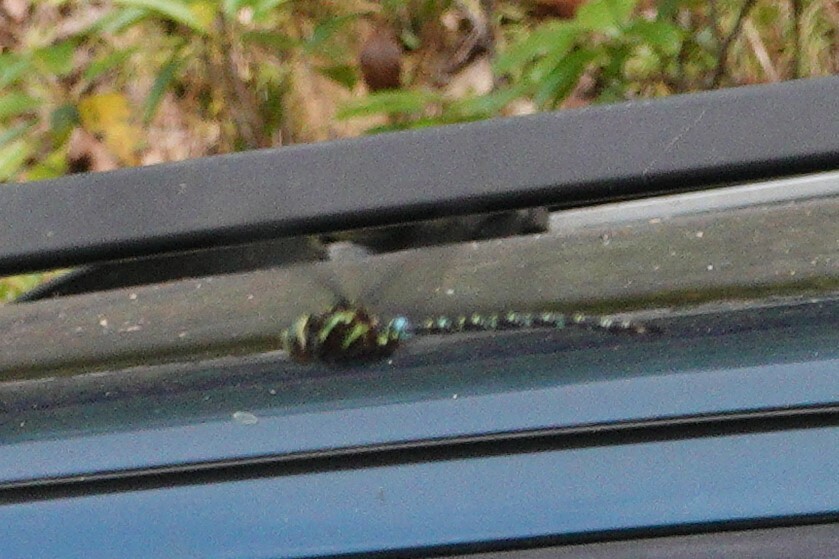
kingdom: Animalia
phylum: Arthropoda
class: Insecta
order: Odonata
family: Aeshnidae
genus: Aeshna
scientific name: Aeshna umbrosa
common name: Shadow darner
